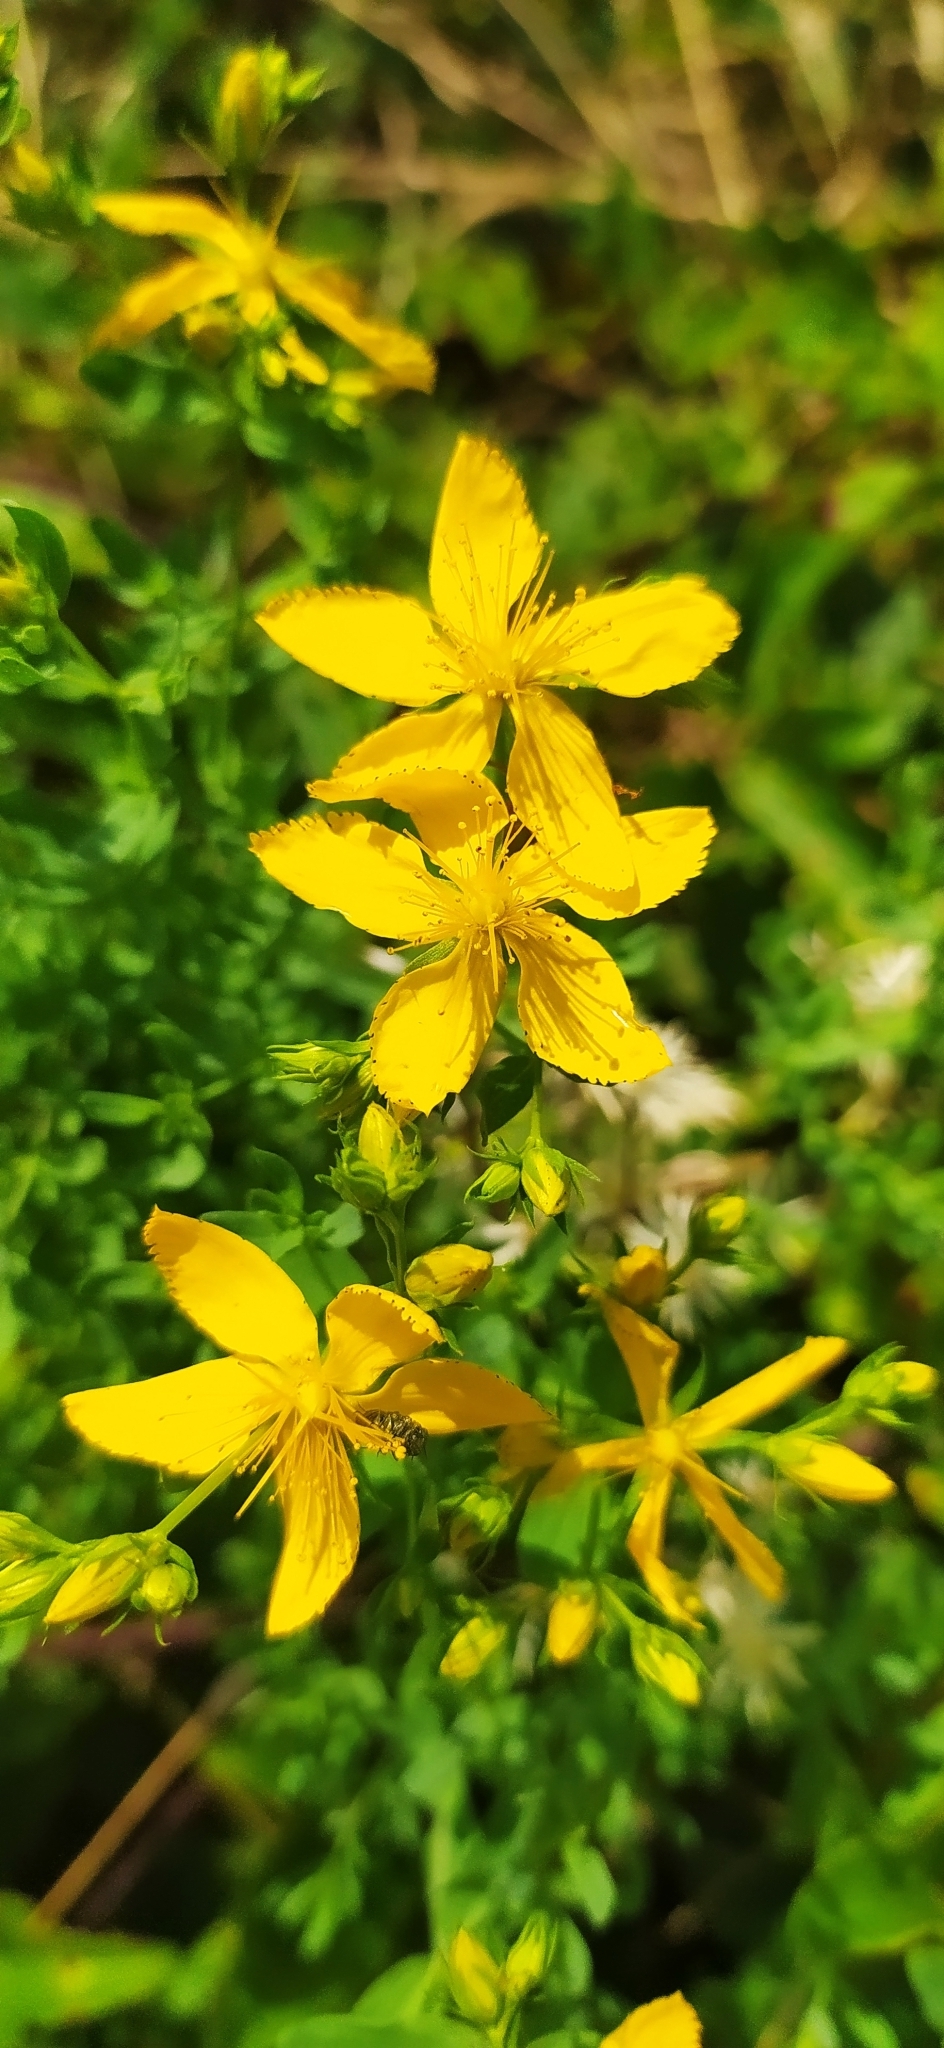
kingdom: Plantae
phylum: Tracheophyta
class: Magnoliopsida
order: Malpighiales
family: Hypericaceae
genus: Hypericum
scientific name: Hypericum perforatum
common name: Common st. johnswort
